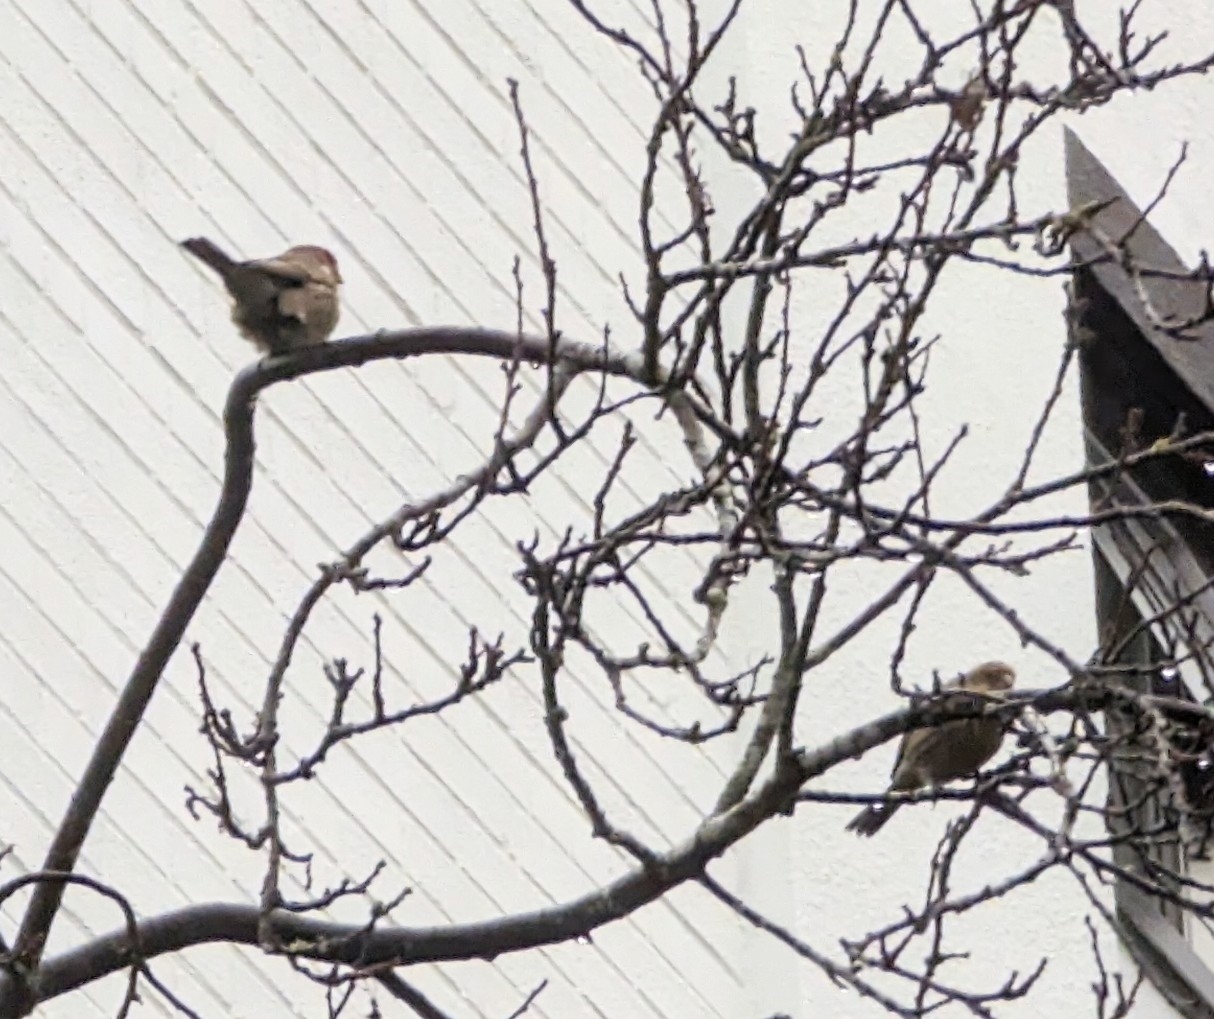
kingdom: Animalia
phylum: Chordata
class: Aves
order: Passeriformes
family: Fringillidae
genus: Haemorhous
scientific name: Haemorhous mexicanus
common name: House finch
